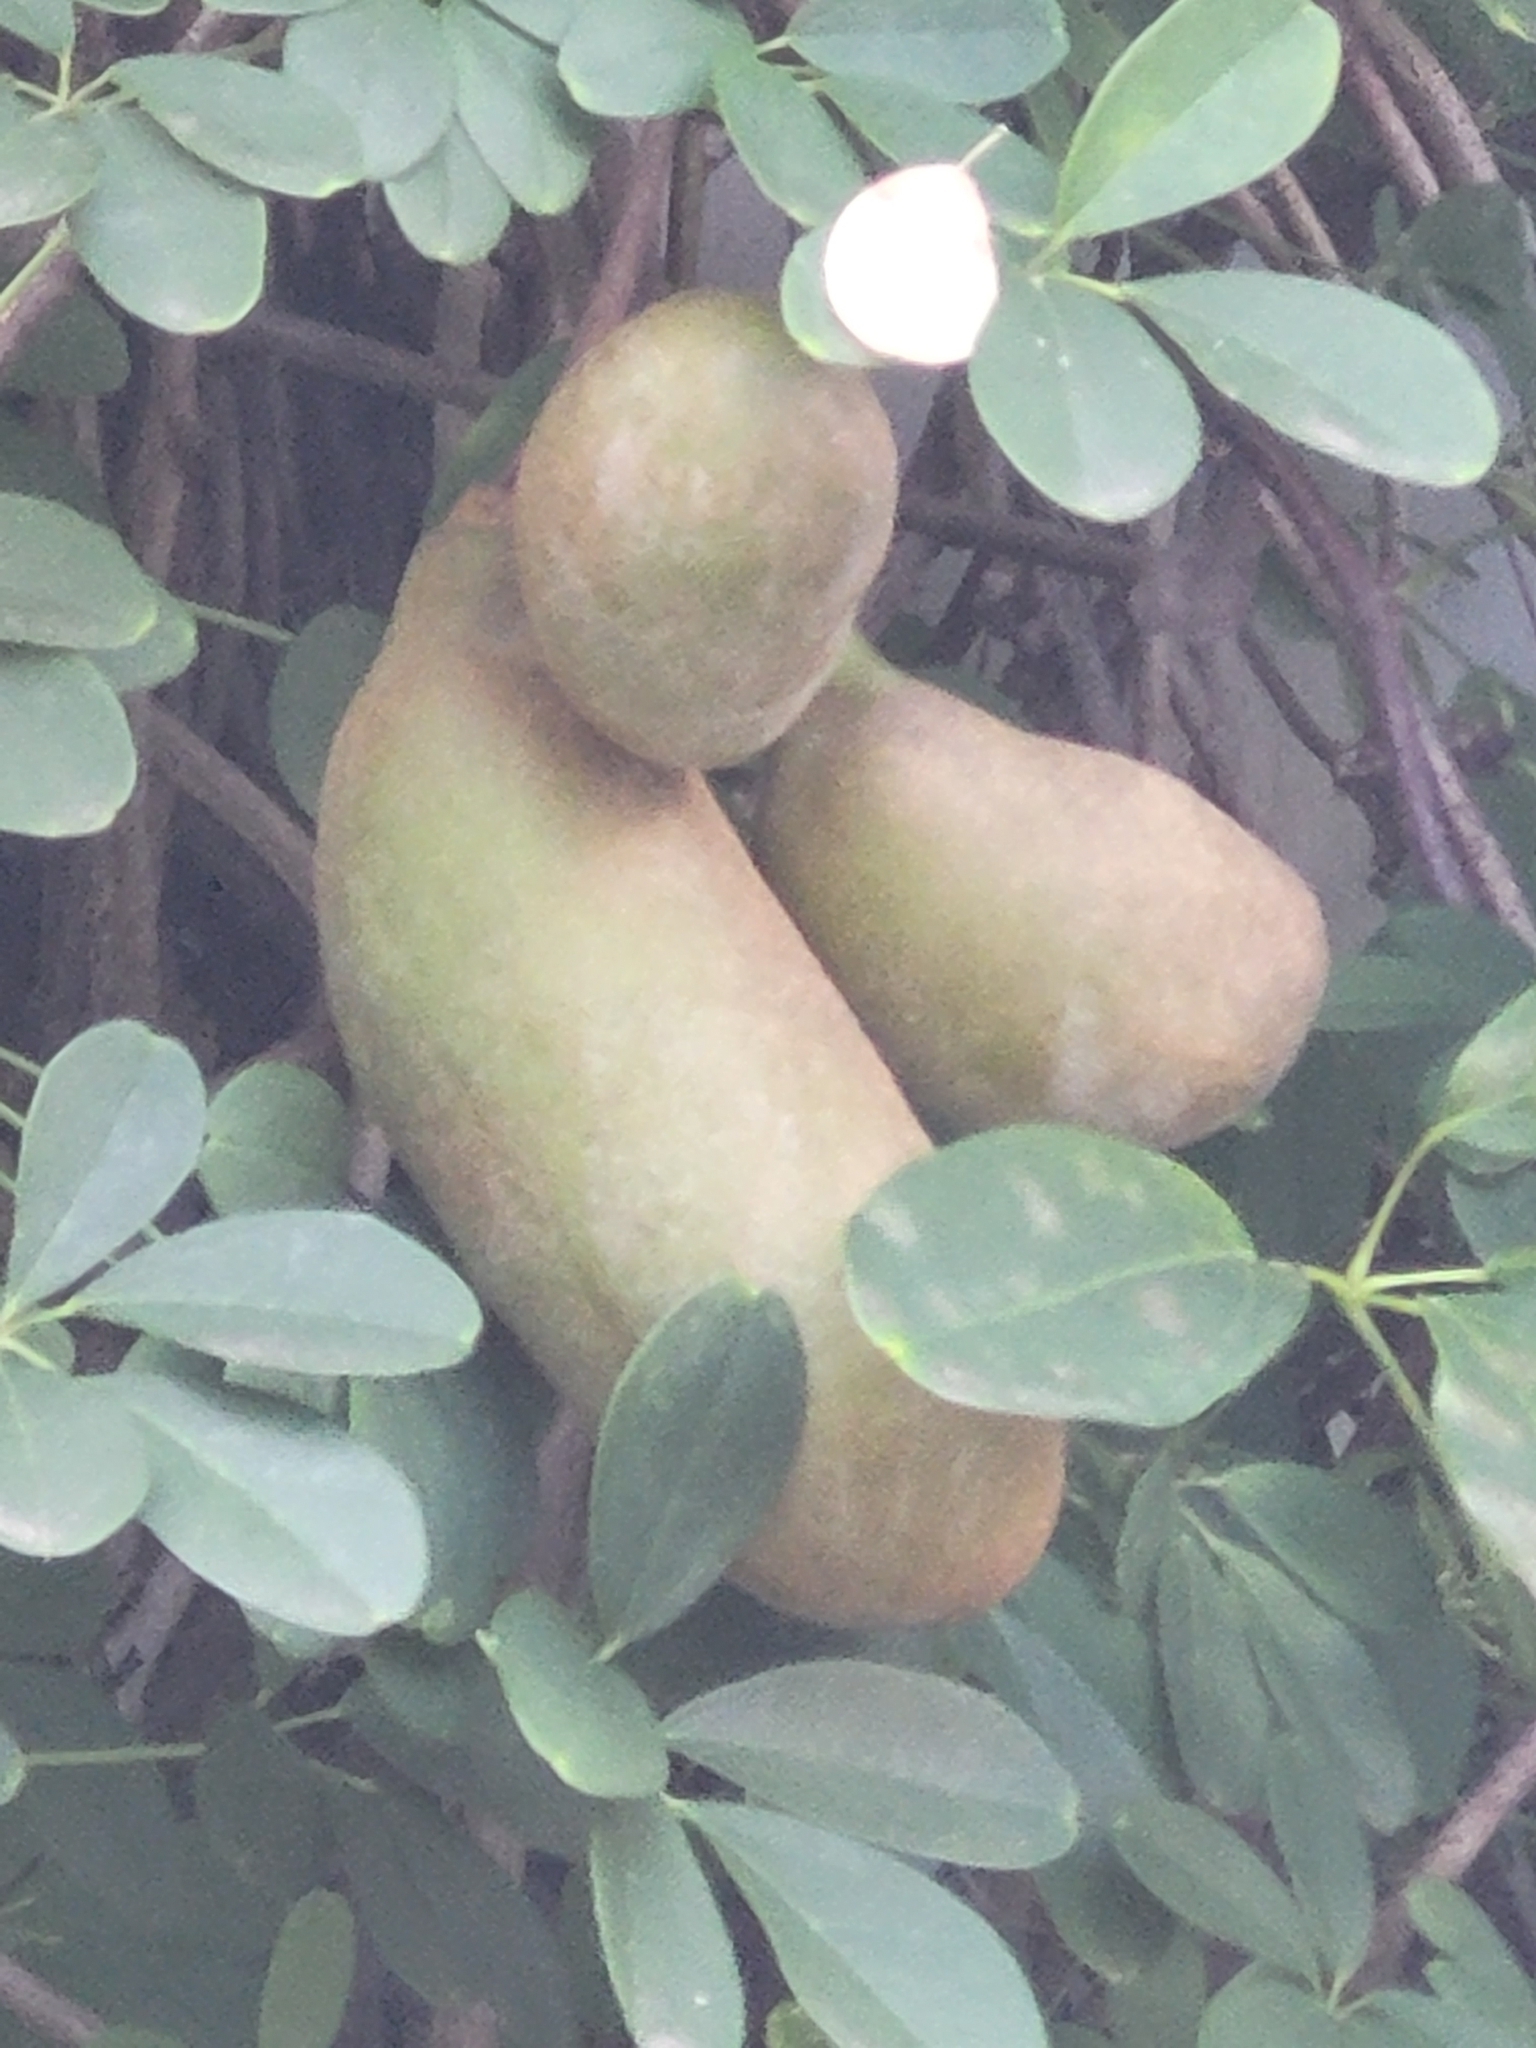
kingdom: Plantae
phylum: Tracheophyta
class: Magnoliopsida
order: Ranunculales
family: Lardizabalaceae
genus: Akebia
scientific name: Akebia quinata
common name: Five-leaf akebia
